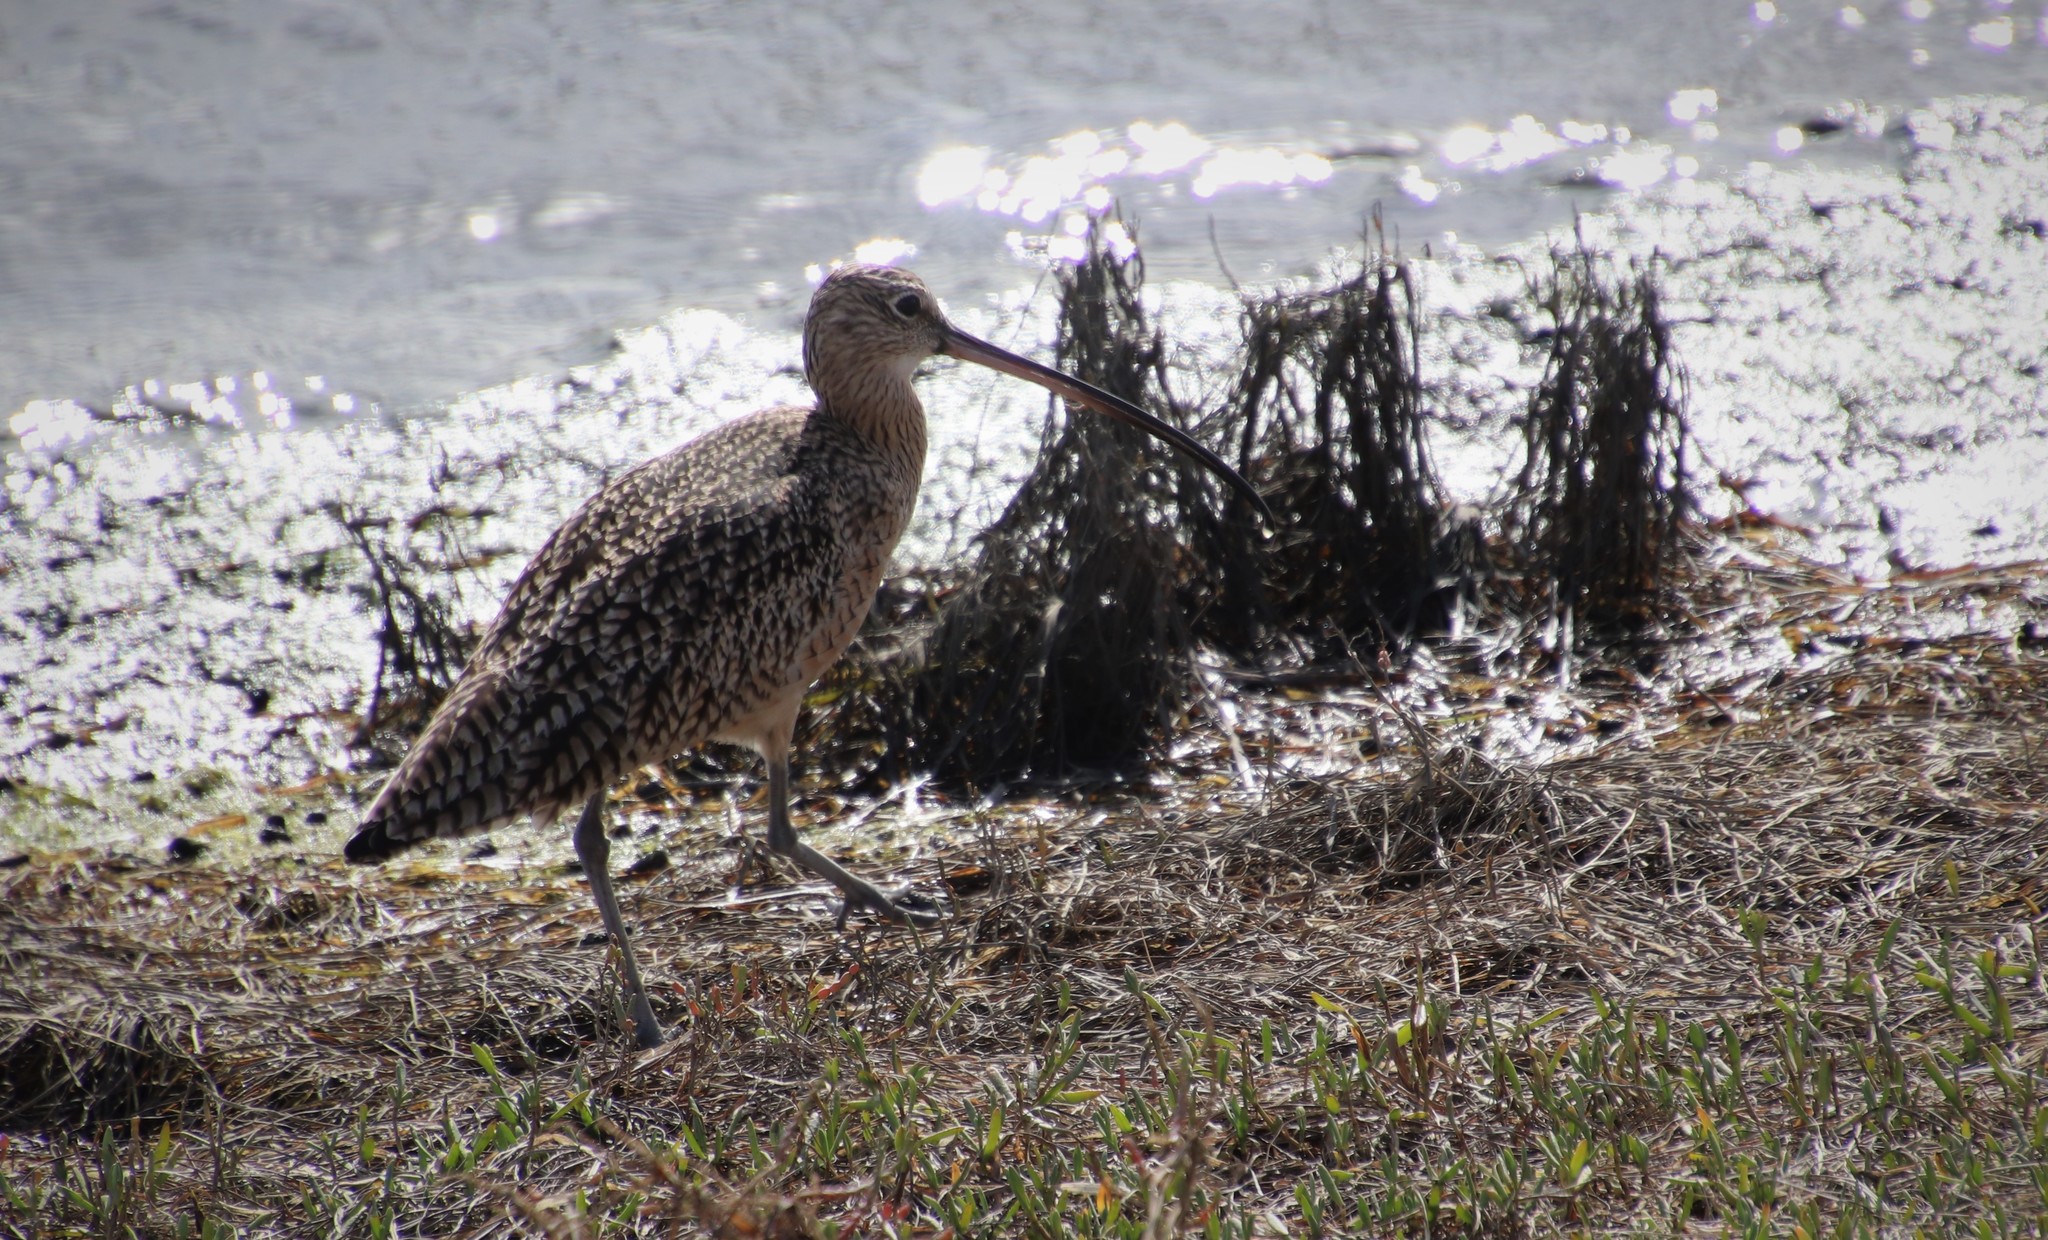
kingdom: Animalia
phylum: Chordata
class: Aves
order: Charadriiformes
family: Scolopacidae
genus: Numenius
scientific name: Numenius americanus
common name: Long-billed curlew
